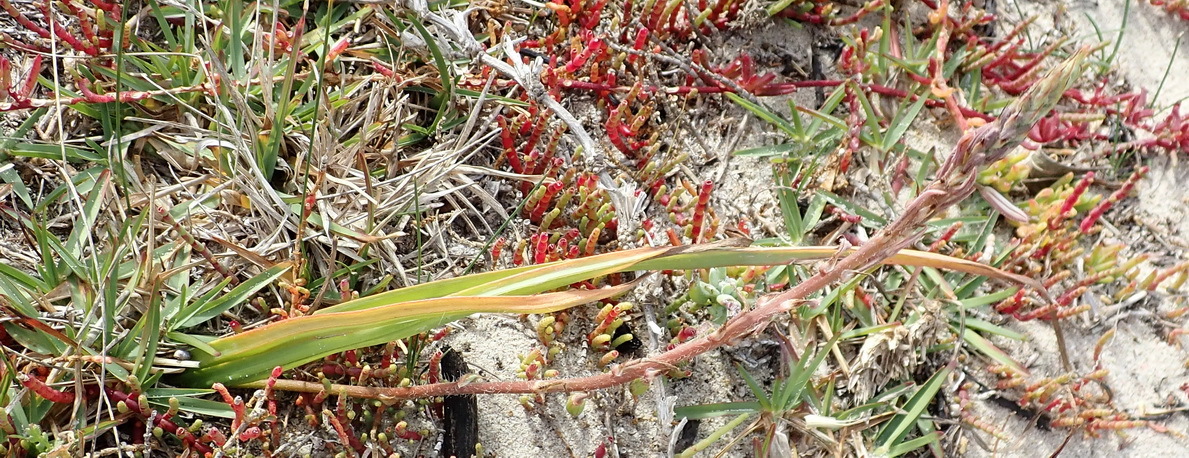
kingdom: Plantae
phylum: Tracheophyta
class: Liliopsida
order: Asparagales
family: Asphodelaceae
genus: Trachyandra
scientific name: Trachyandra ciliata
